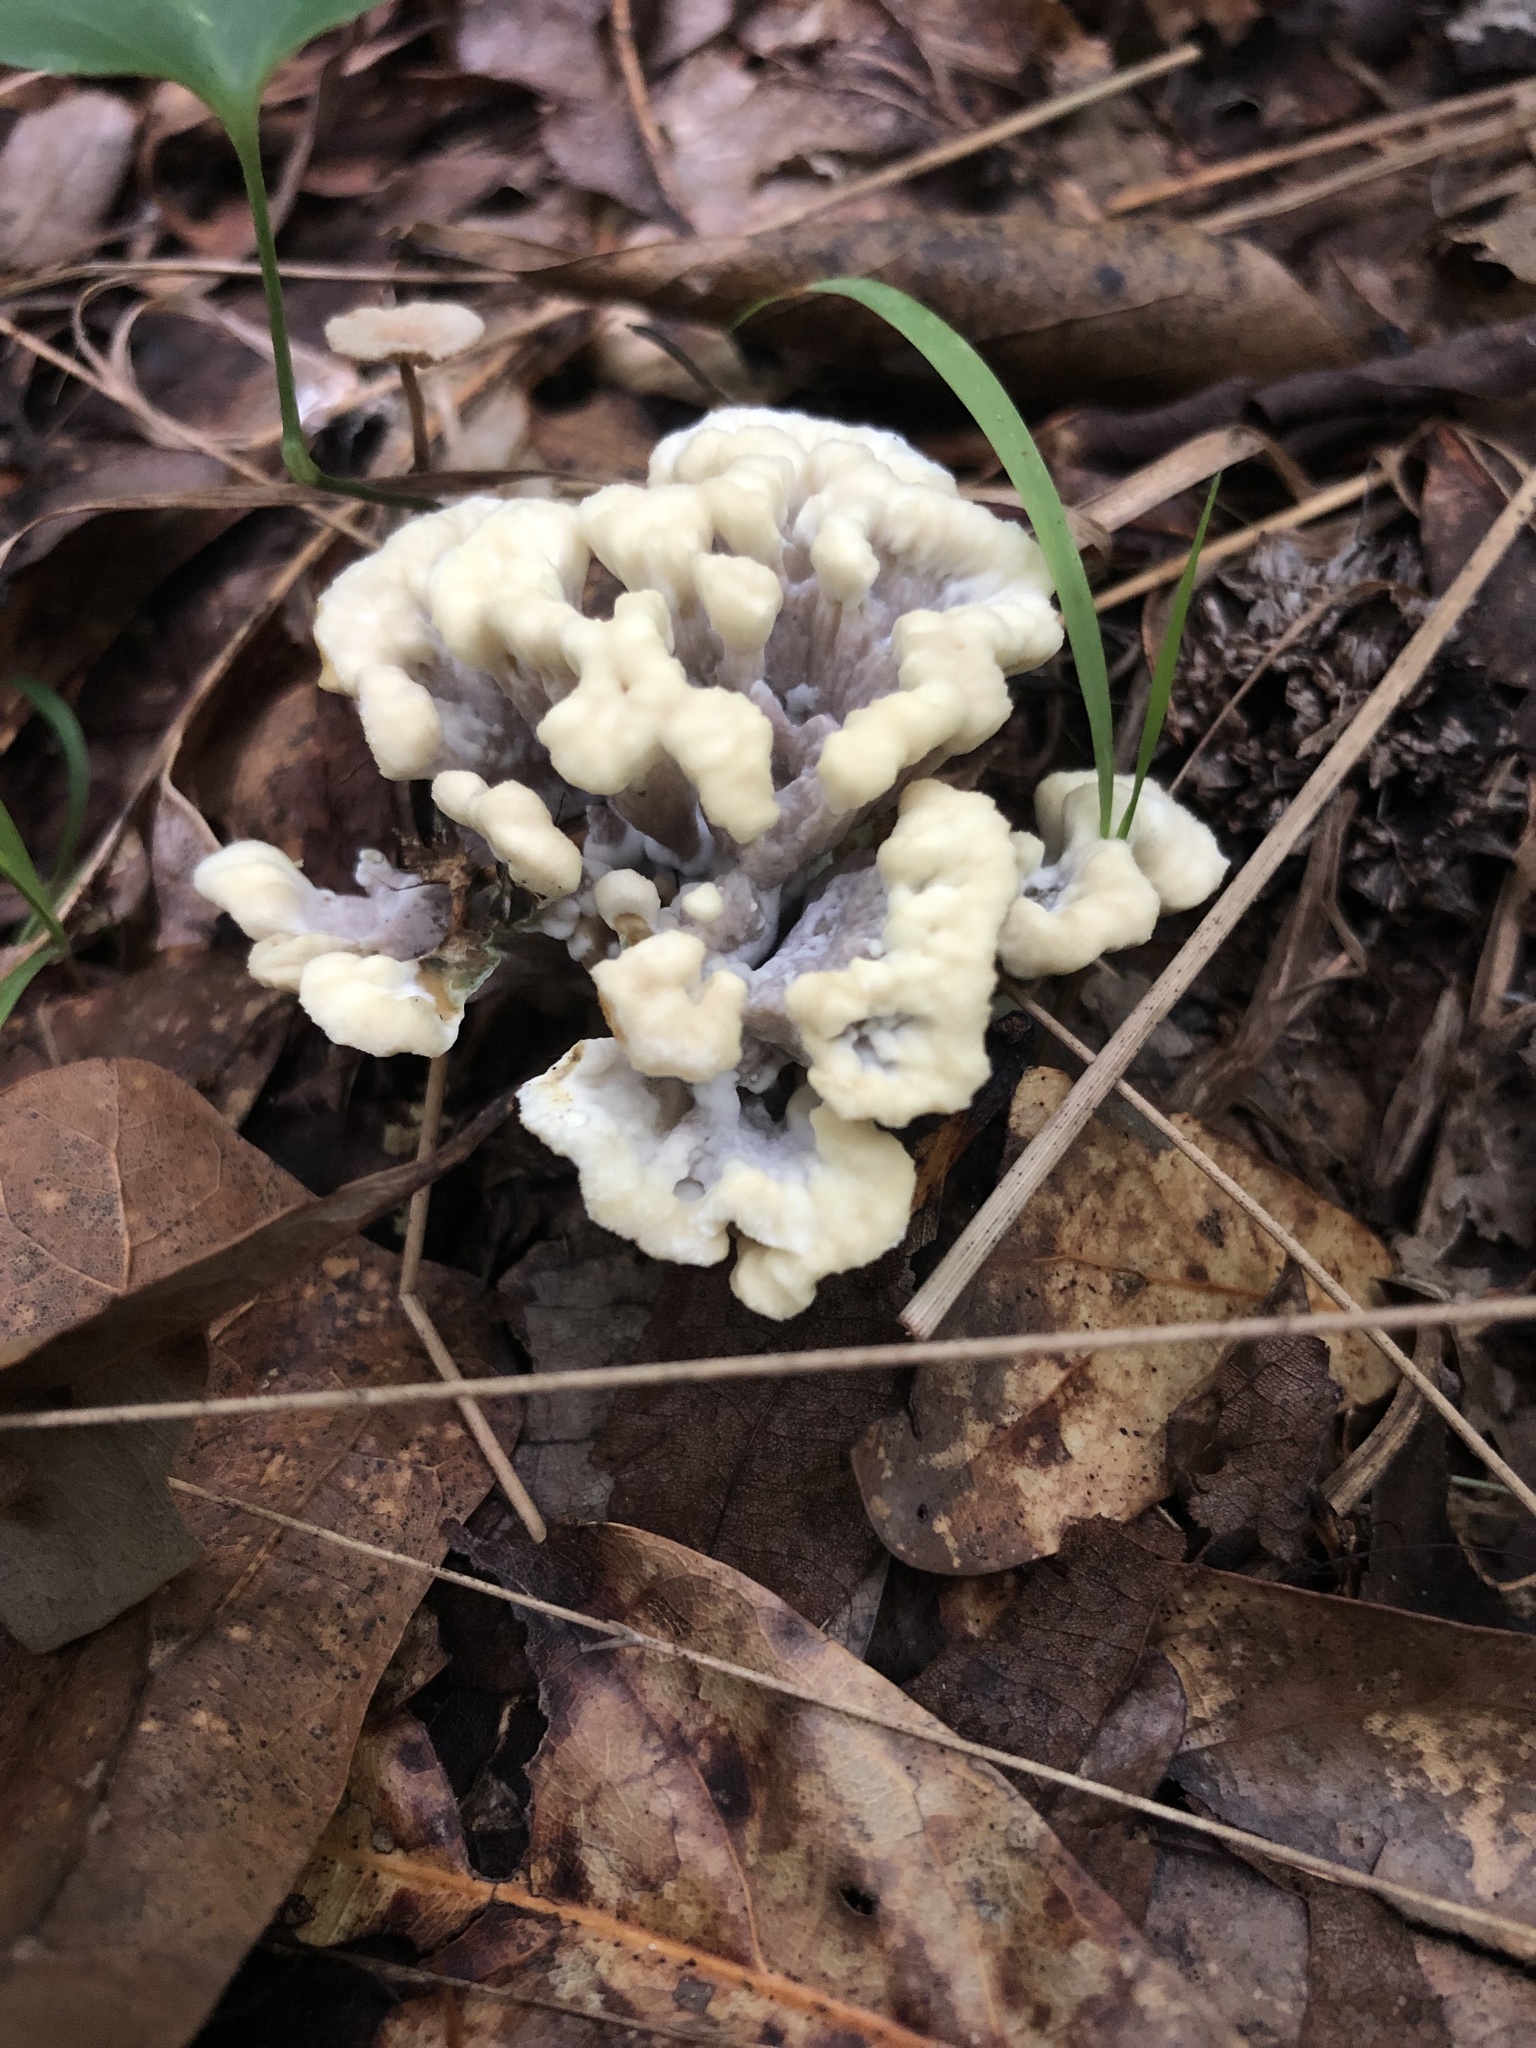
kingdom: Fungi
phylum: Basidiomycota
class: Agaricomycetes
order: Thelephorales
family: Thelephoraceae
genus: Thelephora
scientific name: Thelephora vialis
